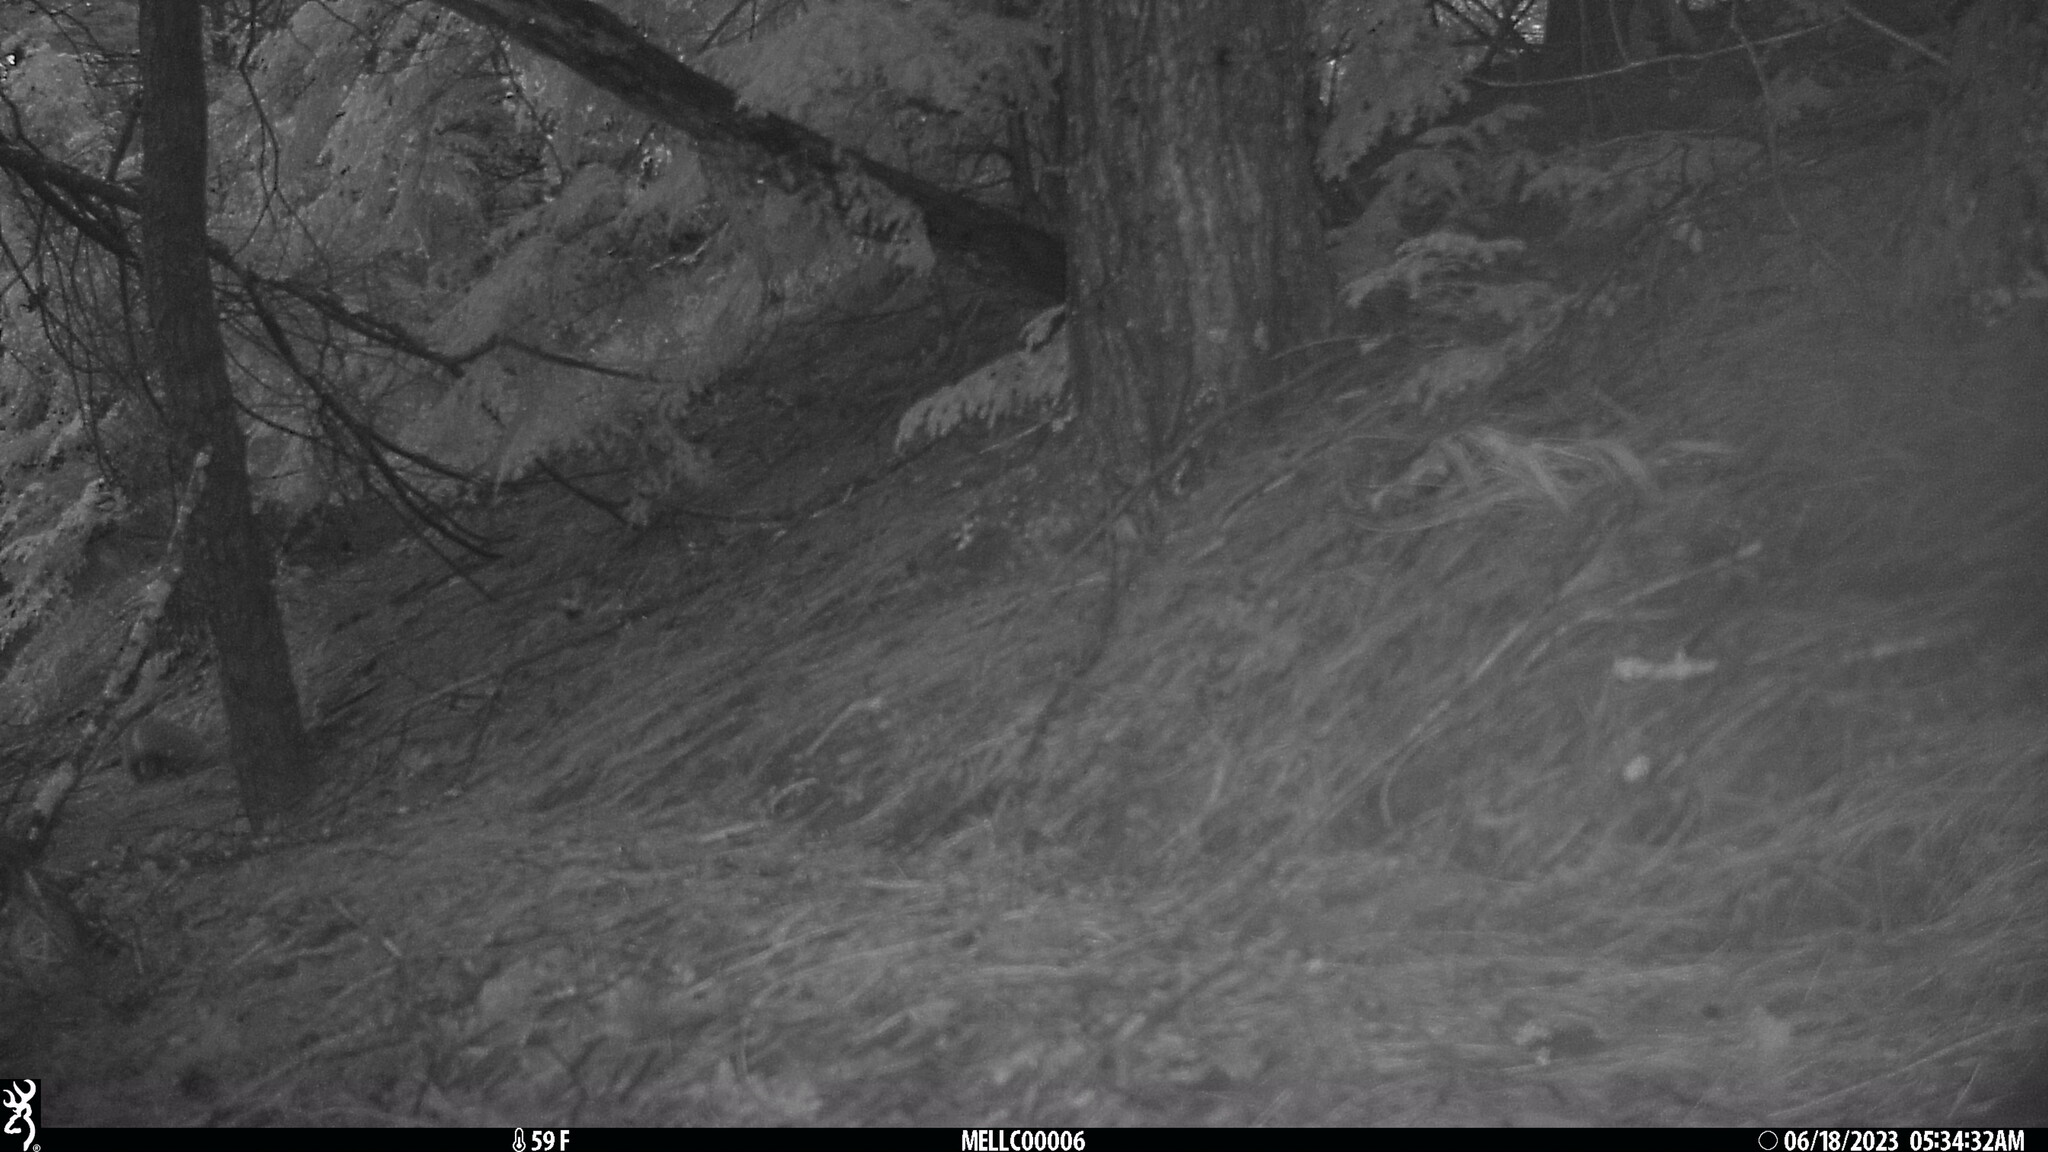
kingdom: Animalia
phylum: Chordata
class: Mammalia
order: Rodentia
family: Sciuridae
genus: Sciurus
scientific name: Sciurus carolinensis
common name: Eastern gray squirrel
